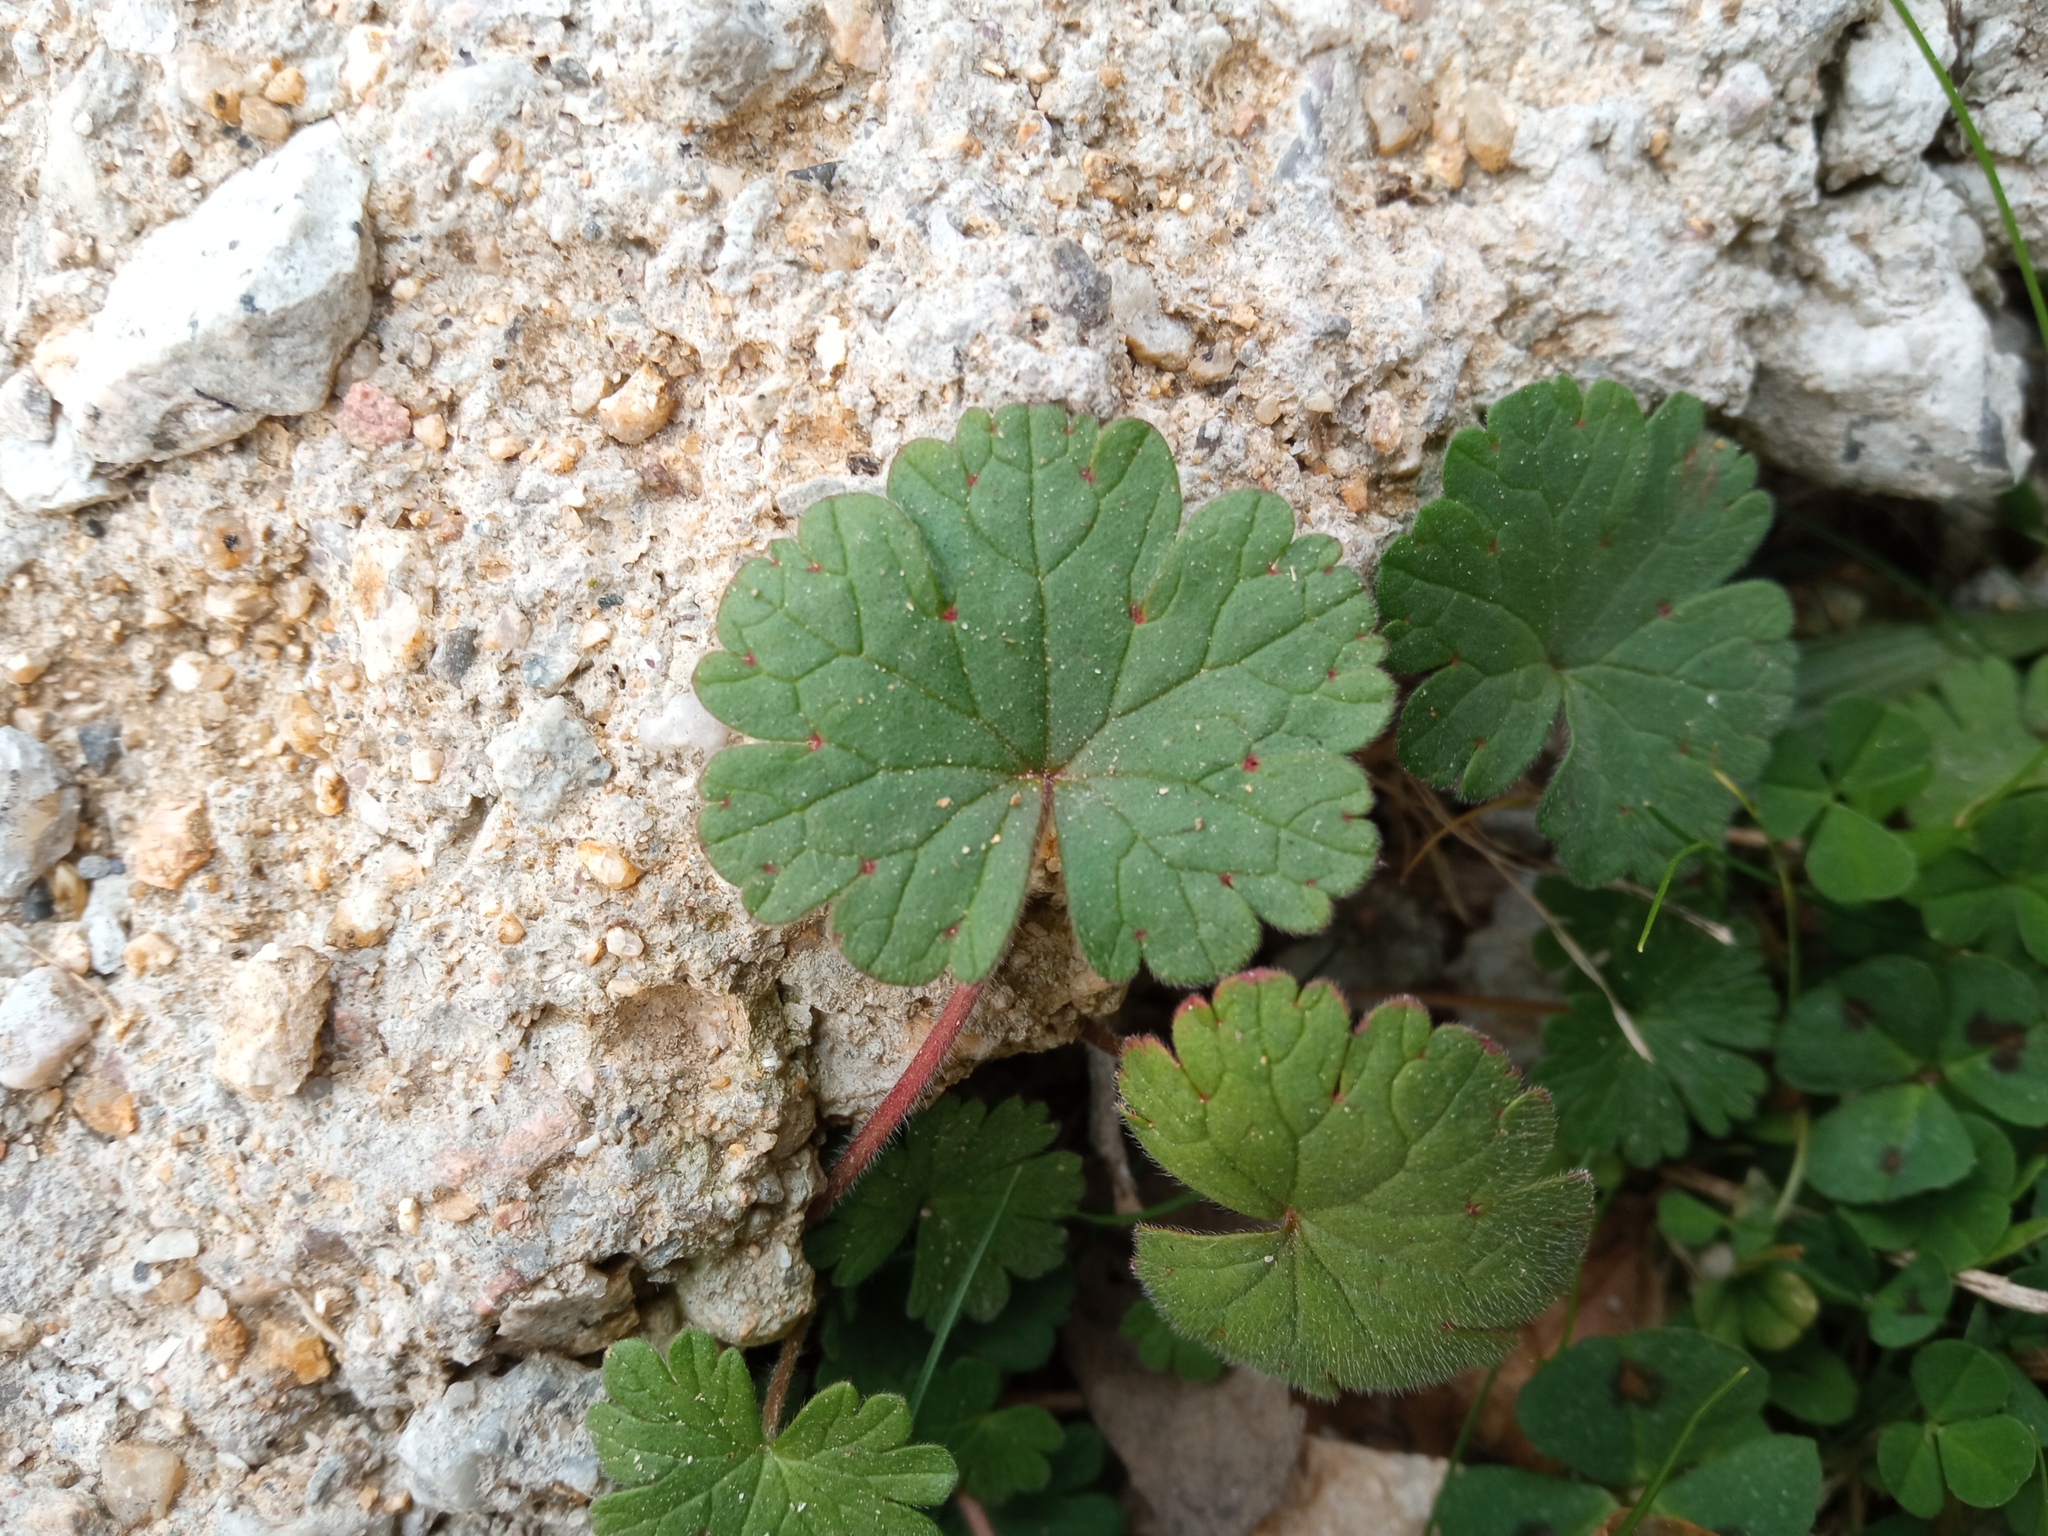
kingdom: Plantae
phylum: Tracheophyta
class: Magnoliopsida
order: Geraniales
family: Geraniaceae
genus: Geranium
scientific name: Geranium rotundifolium
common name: Round-leaved crane's-bill
